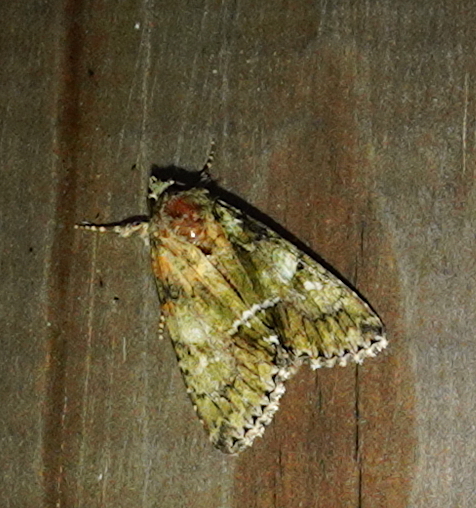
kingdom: Animalia
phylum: Arthropoda
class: Insecta
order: Lepidoptera
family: Noctuidae
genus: Polyphaenis
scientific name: Polyphaenis sericata
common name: Guernsey underwing
